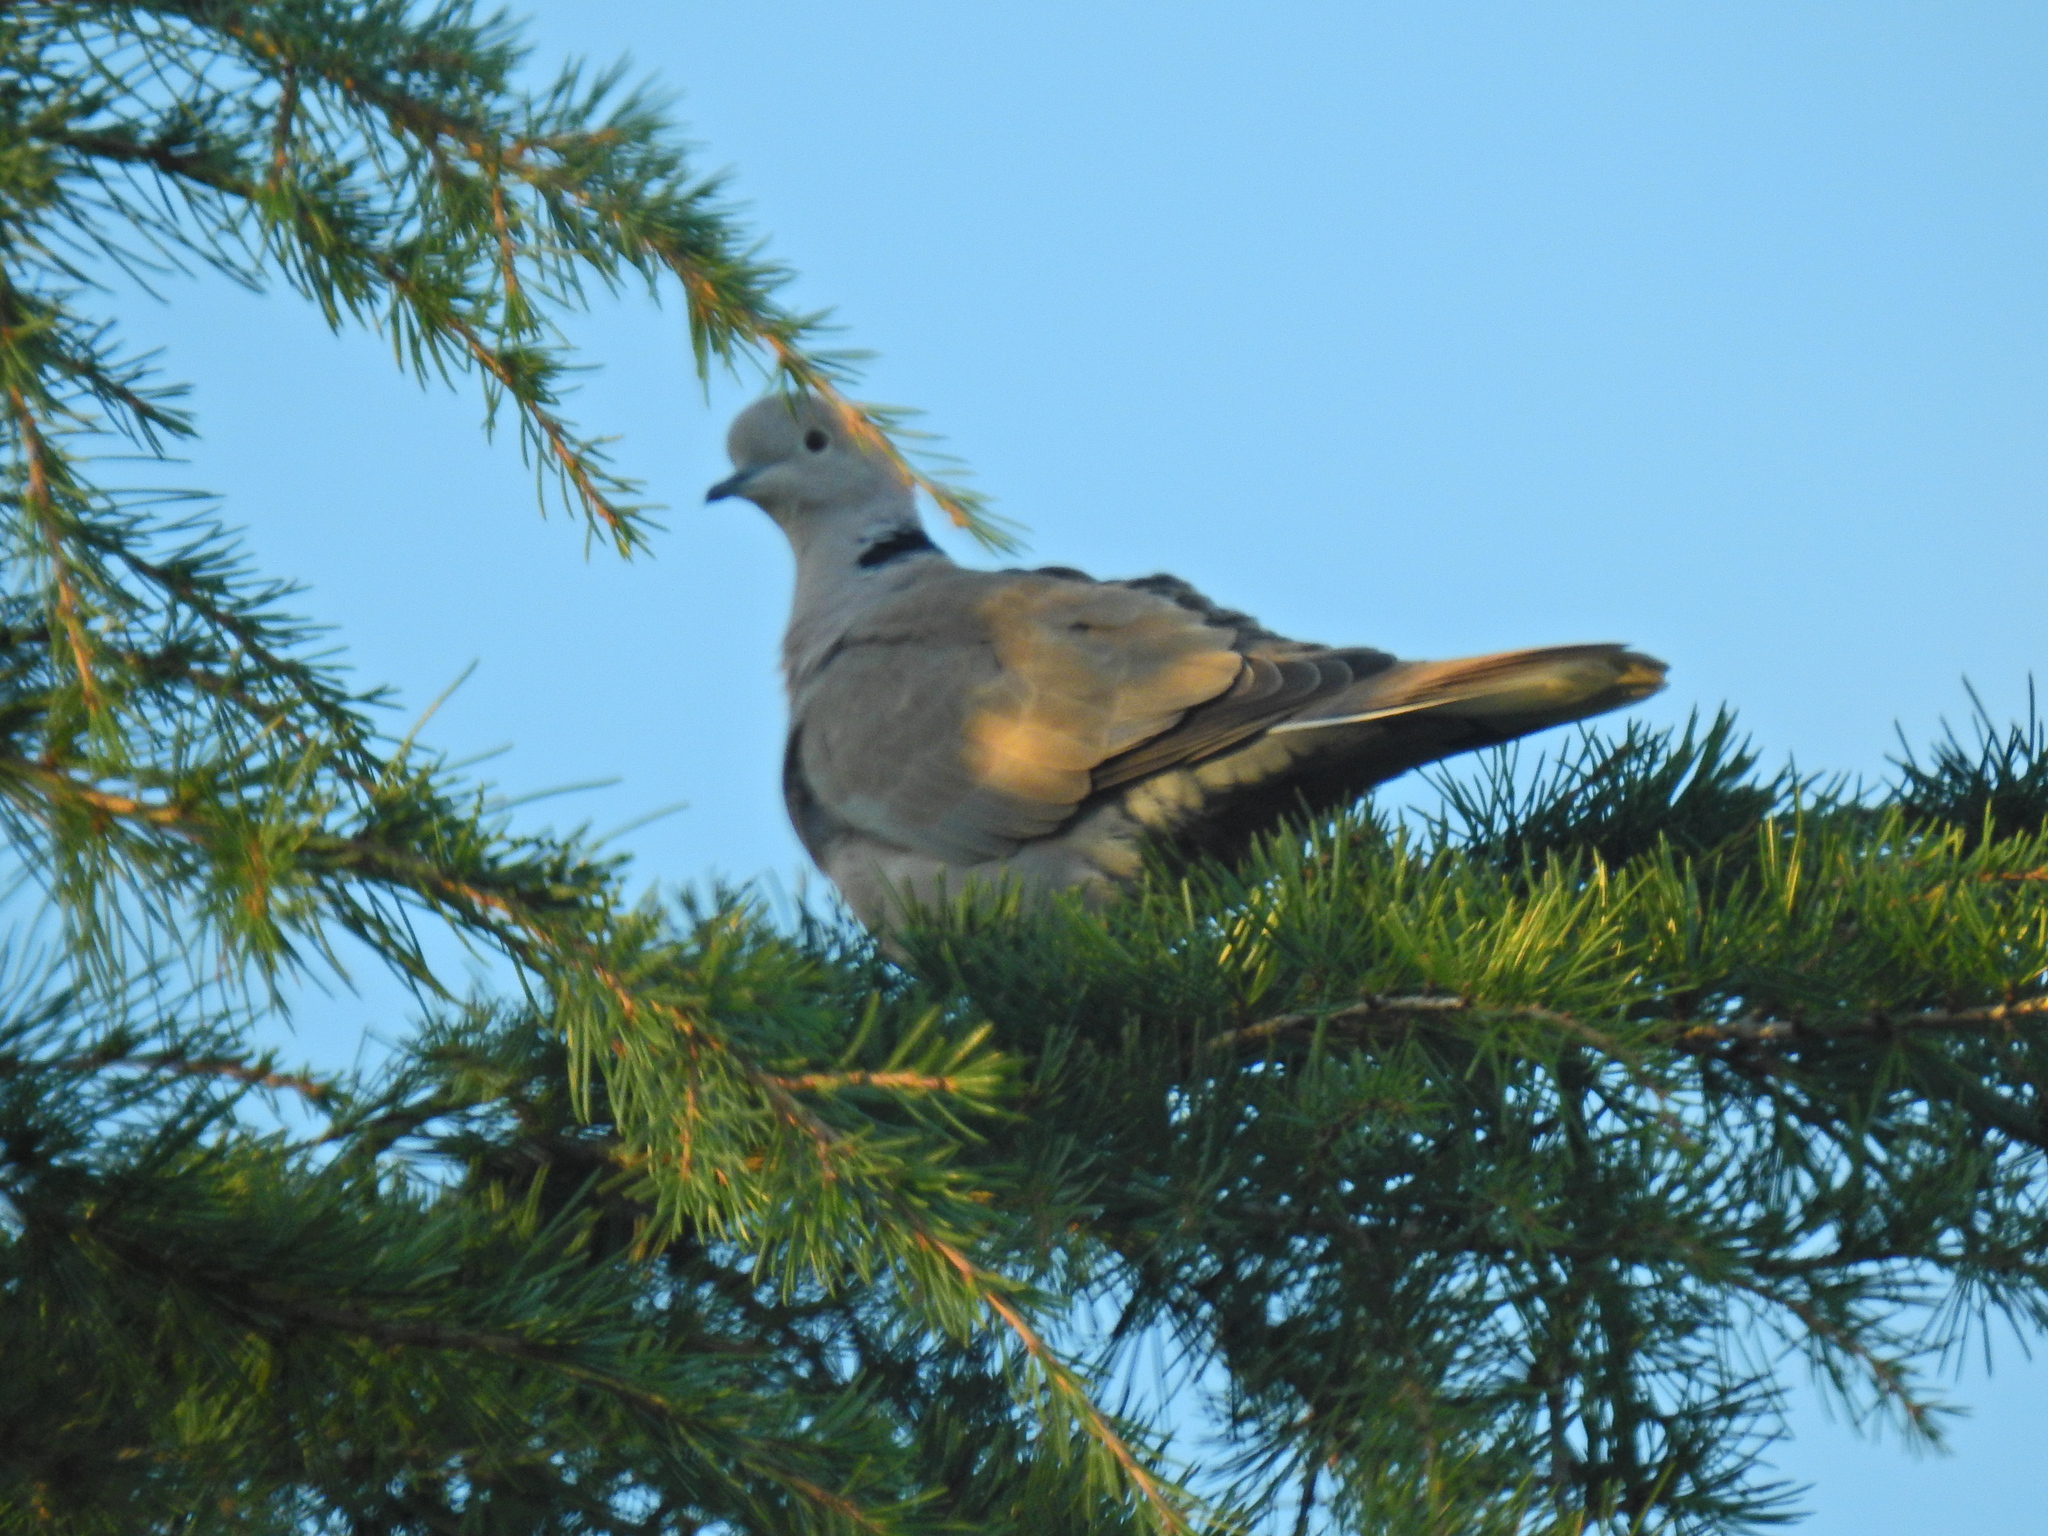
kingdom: Animalia
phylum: Chordata
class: Aves
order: Columbiformes
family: Columbidae
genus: Streptopelia
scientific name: Streptopelia decaocto
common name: Eurasian collared dove
